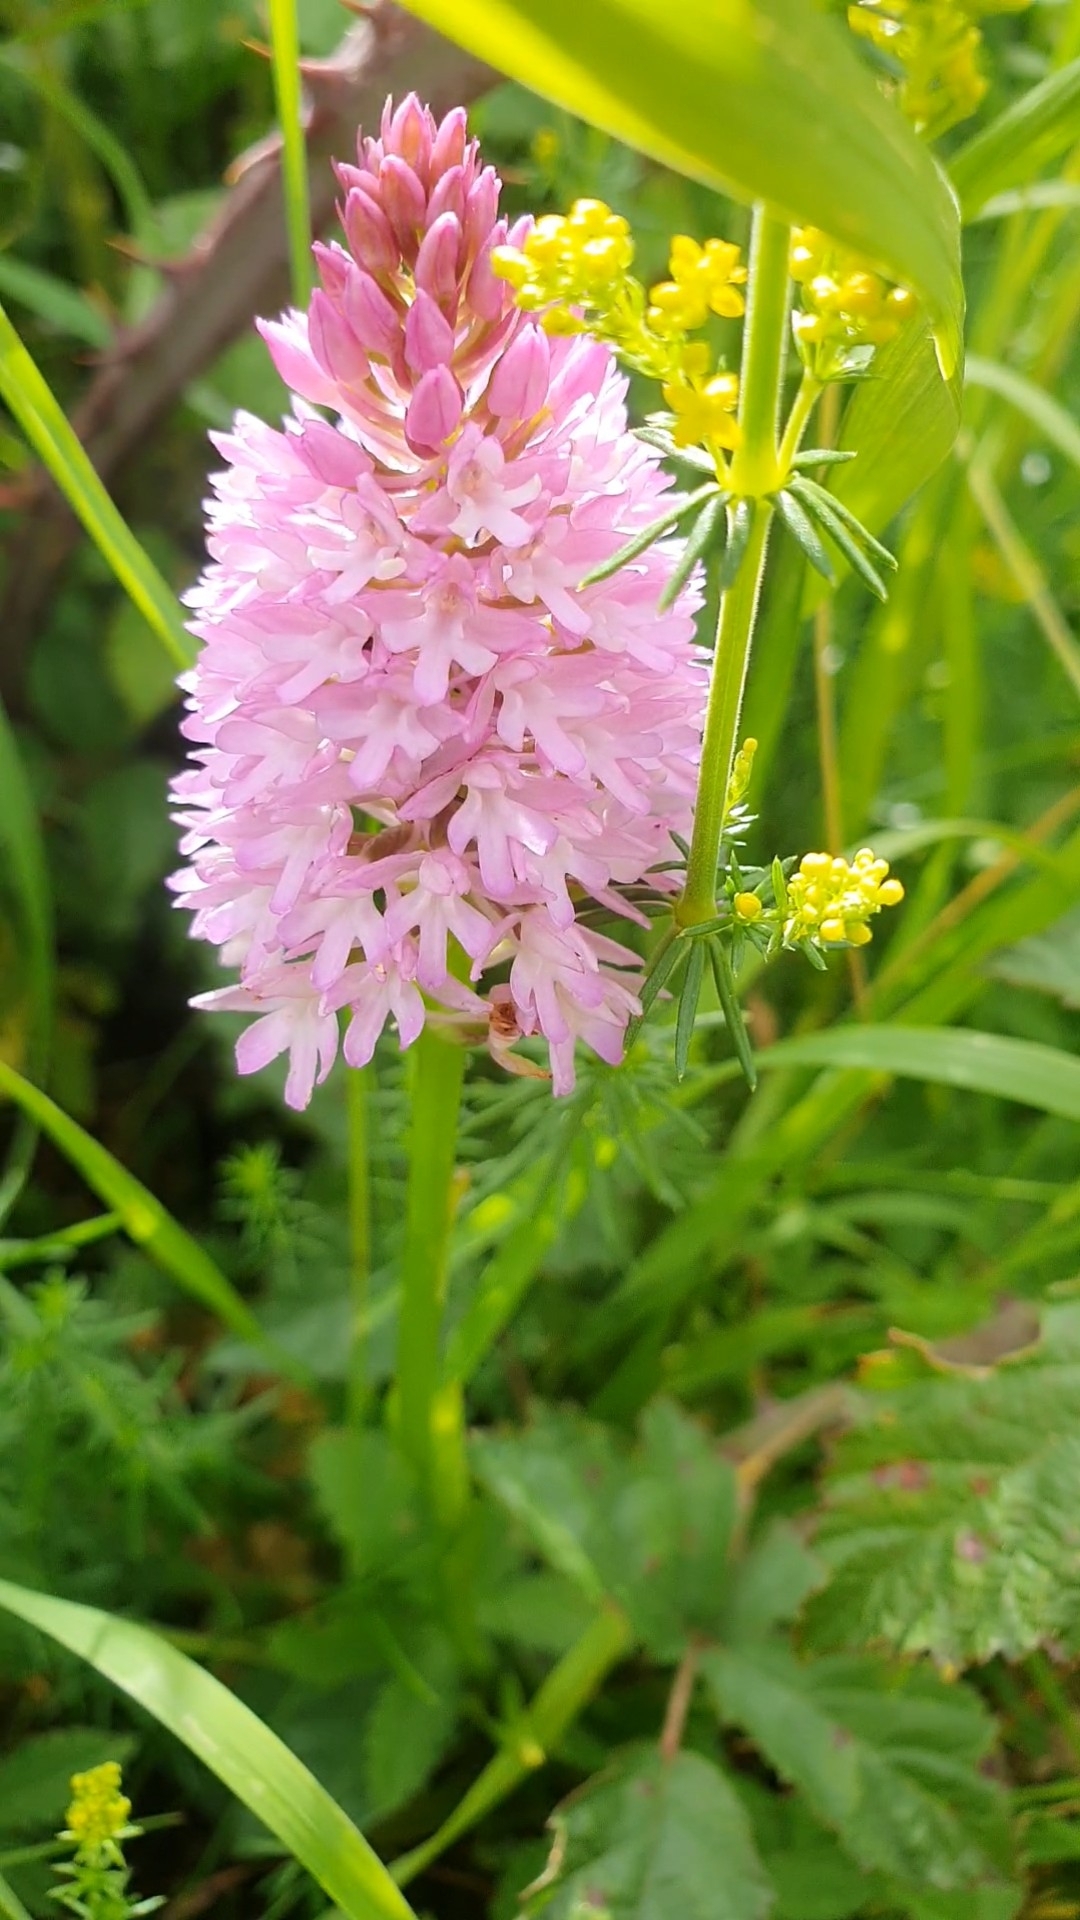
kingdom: Plantae
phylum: Tracheophyta
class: Liliopsida
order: Asparagales
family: Orchidaceae
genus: Anacamptis
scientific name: Anacamptis pyramidalis
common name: Pyramidal orchid
